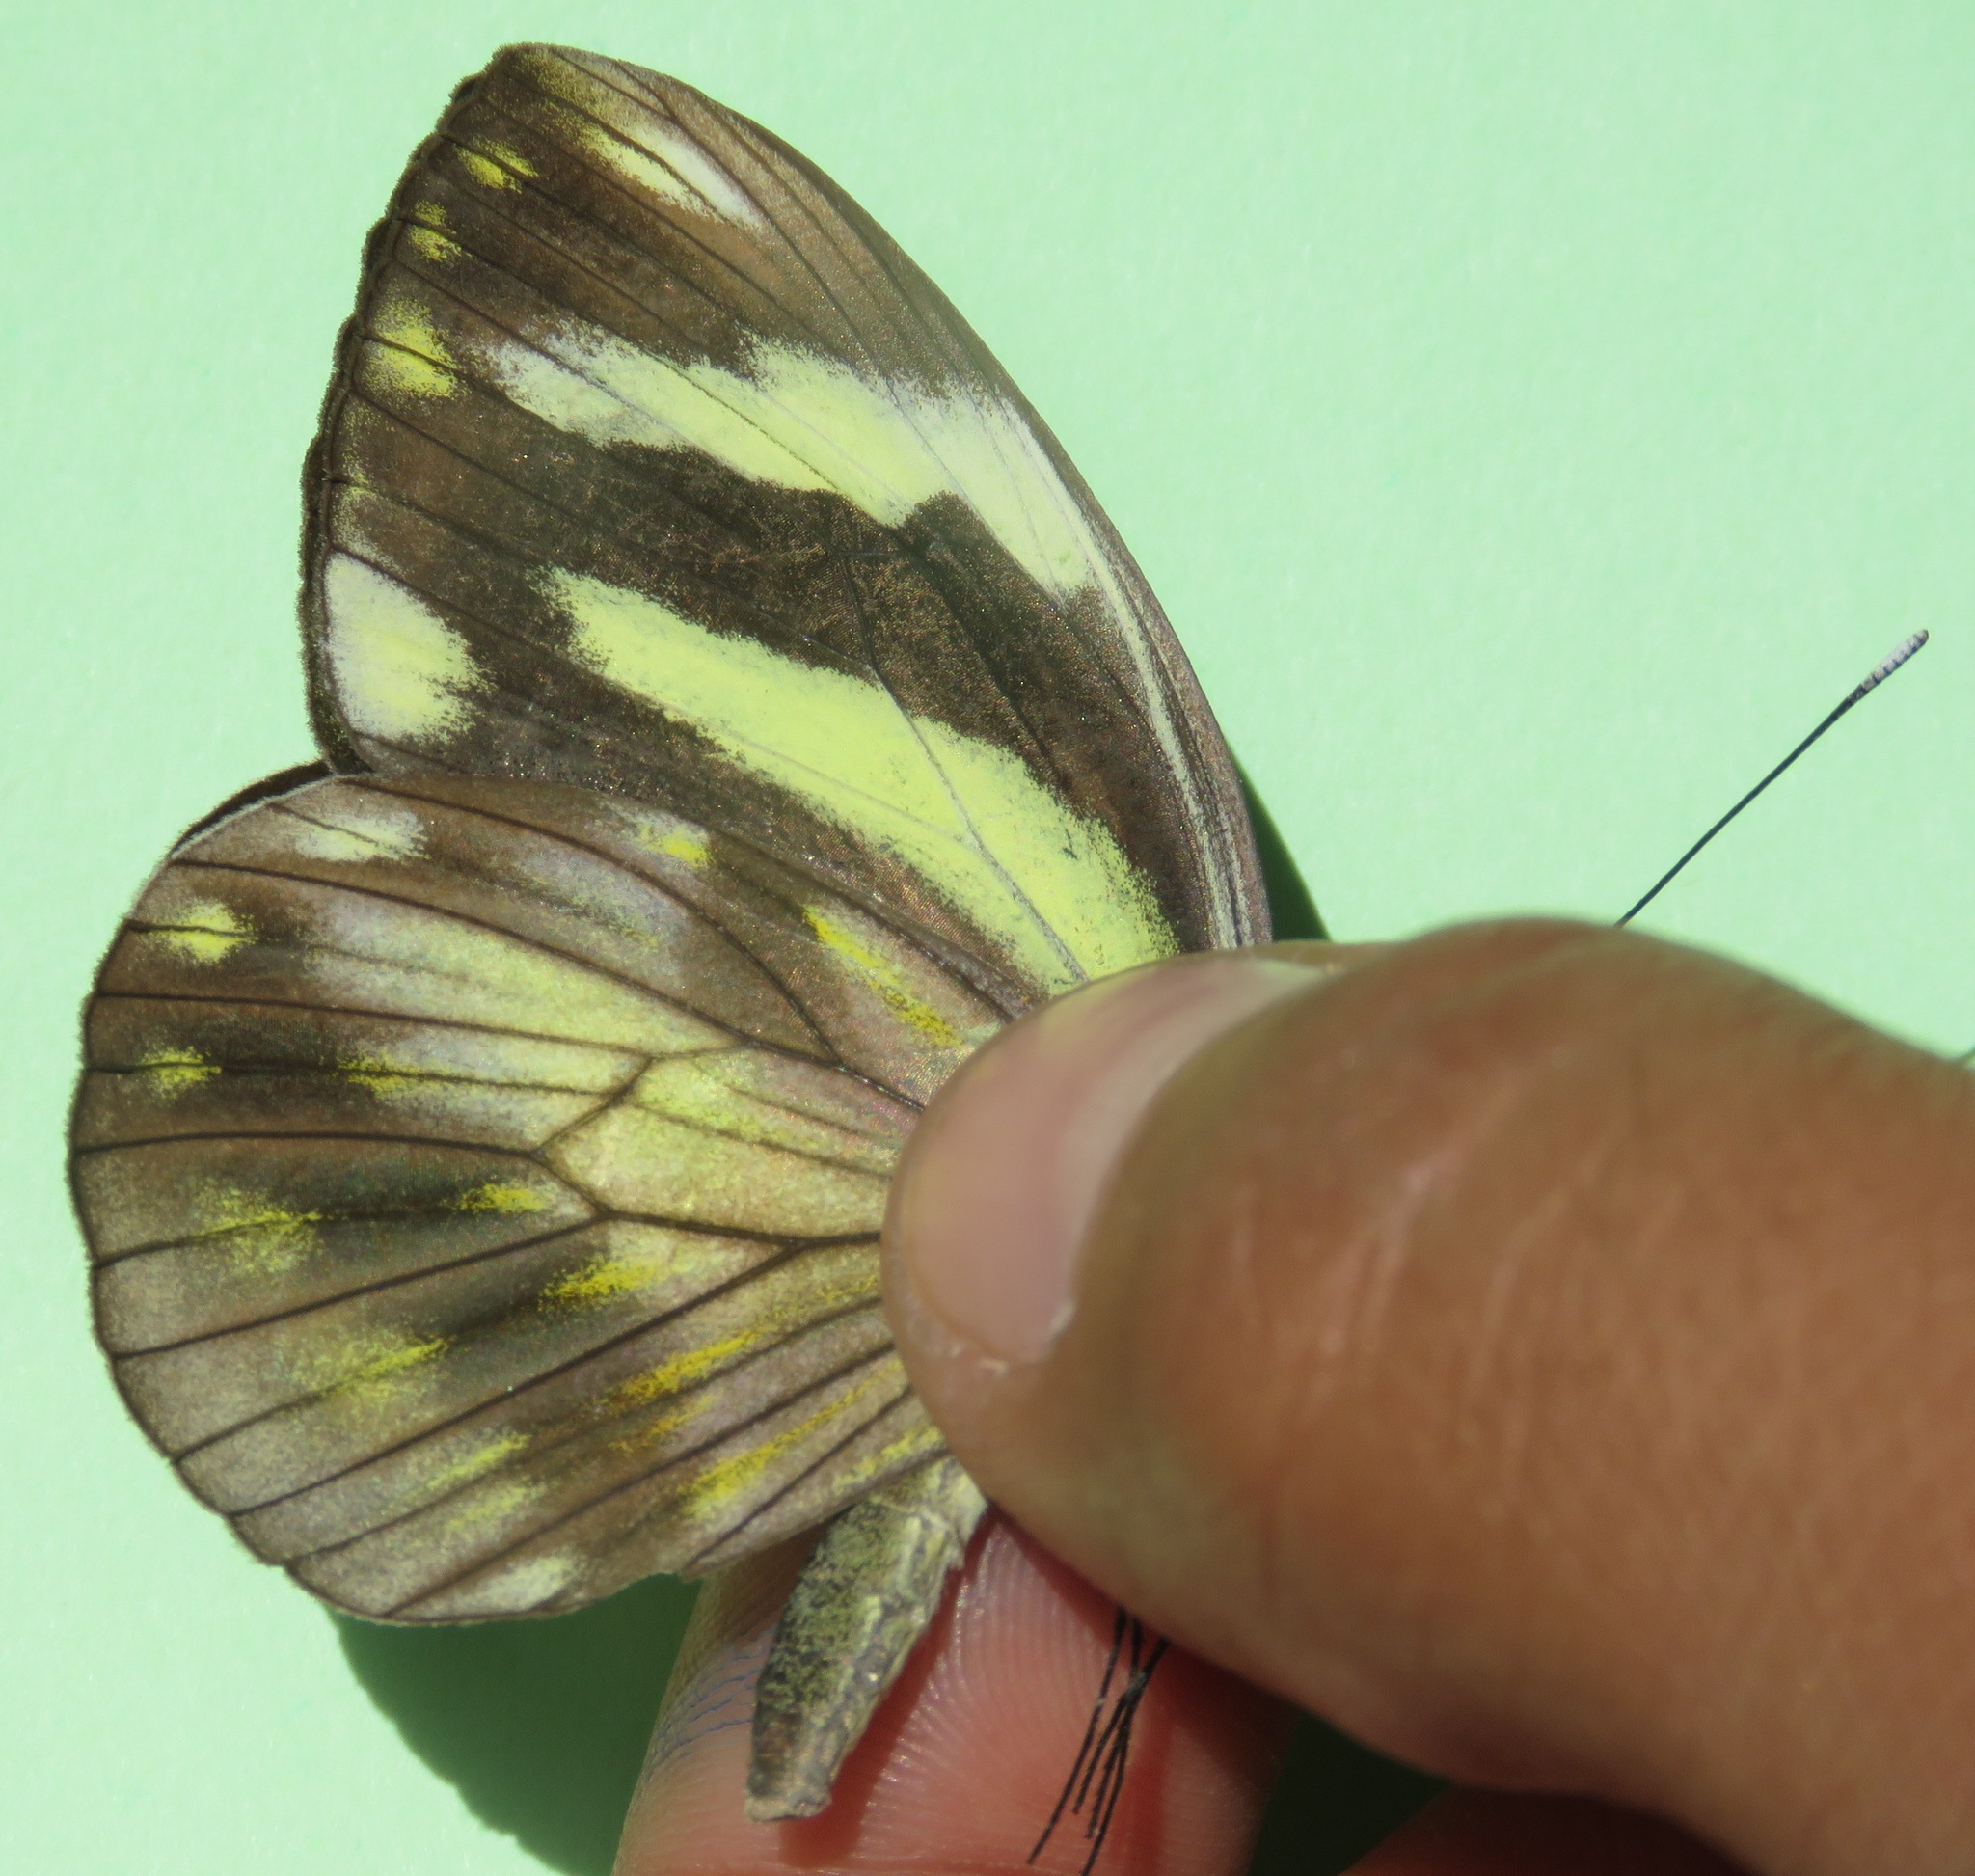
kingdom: Animalia
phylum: Arthropoda
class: Insecta
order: Lepidoptera
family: Pieridae
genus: Pieriballia
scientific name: Pieriballia viardi
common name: Painted white
